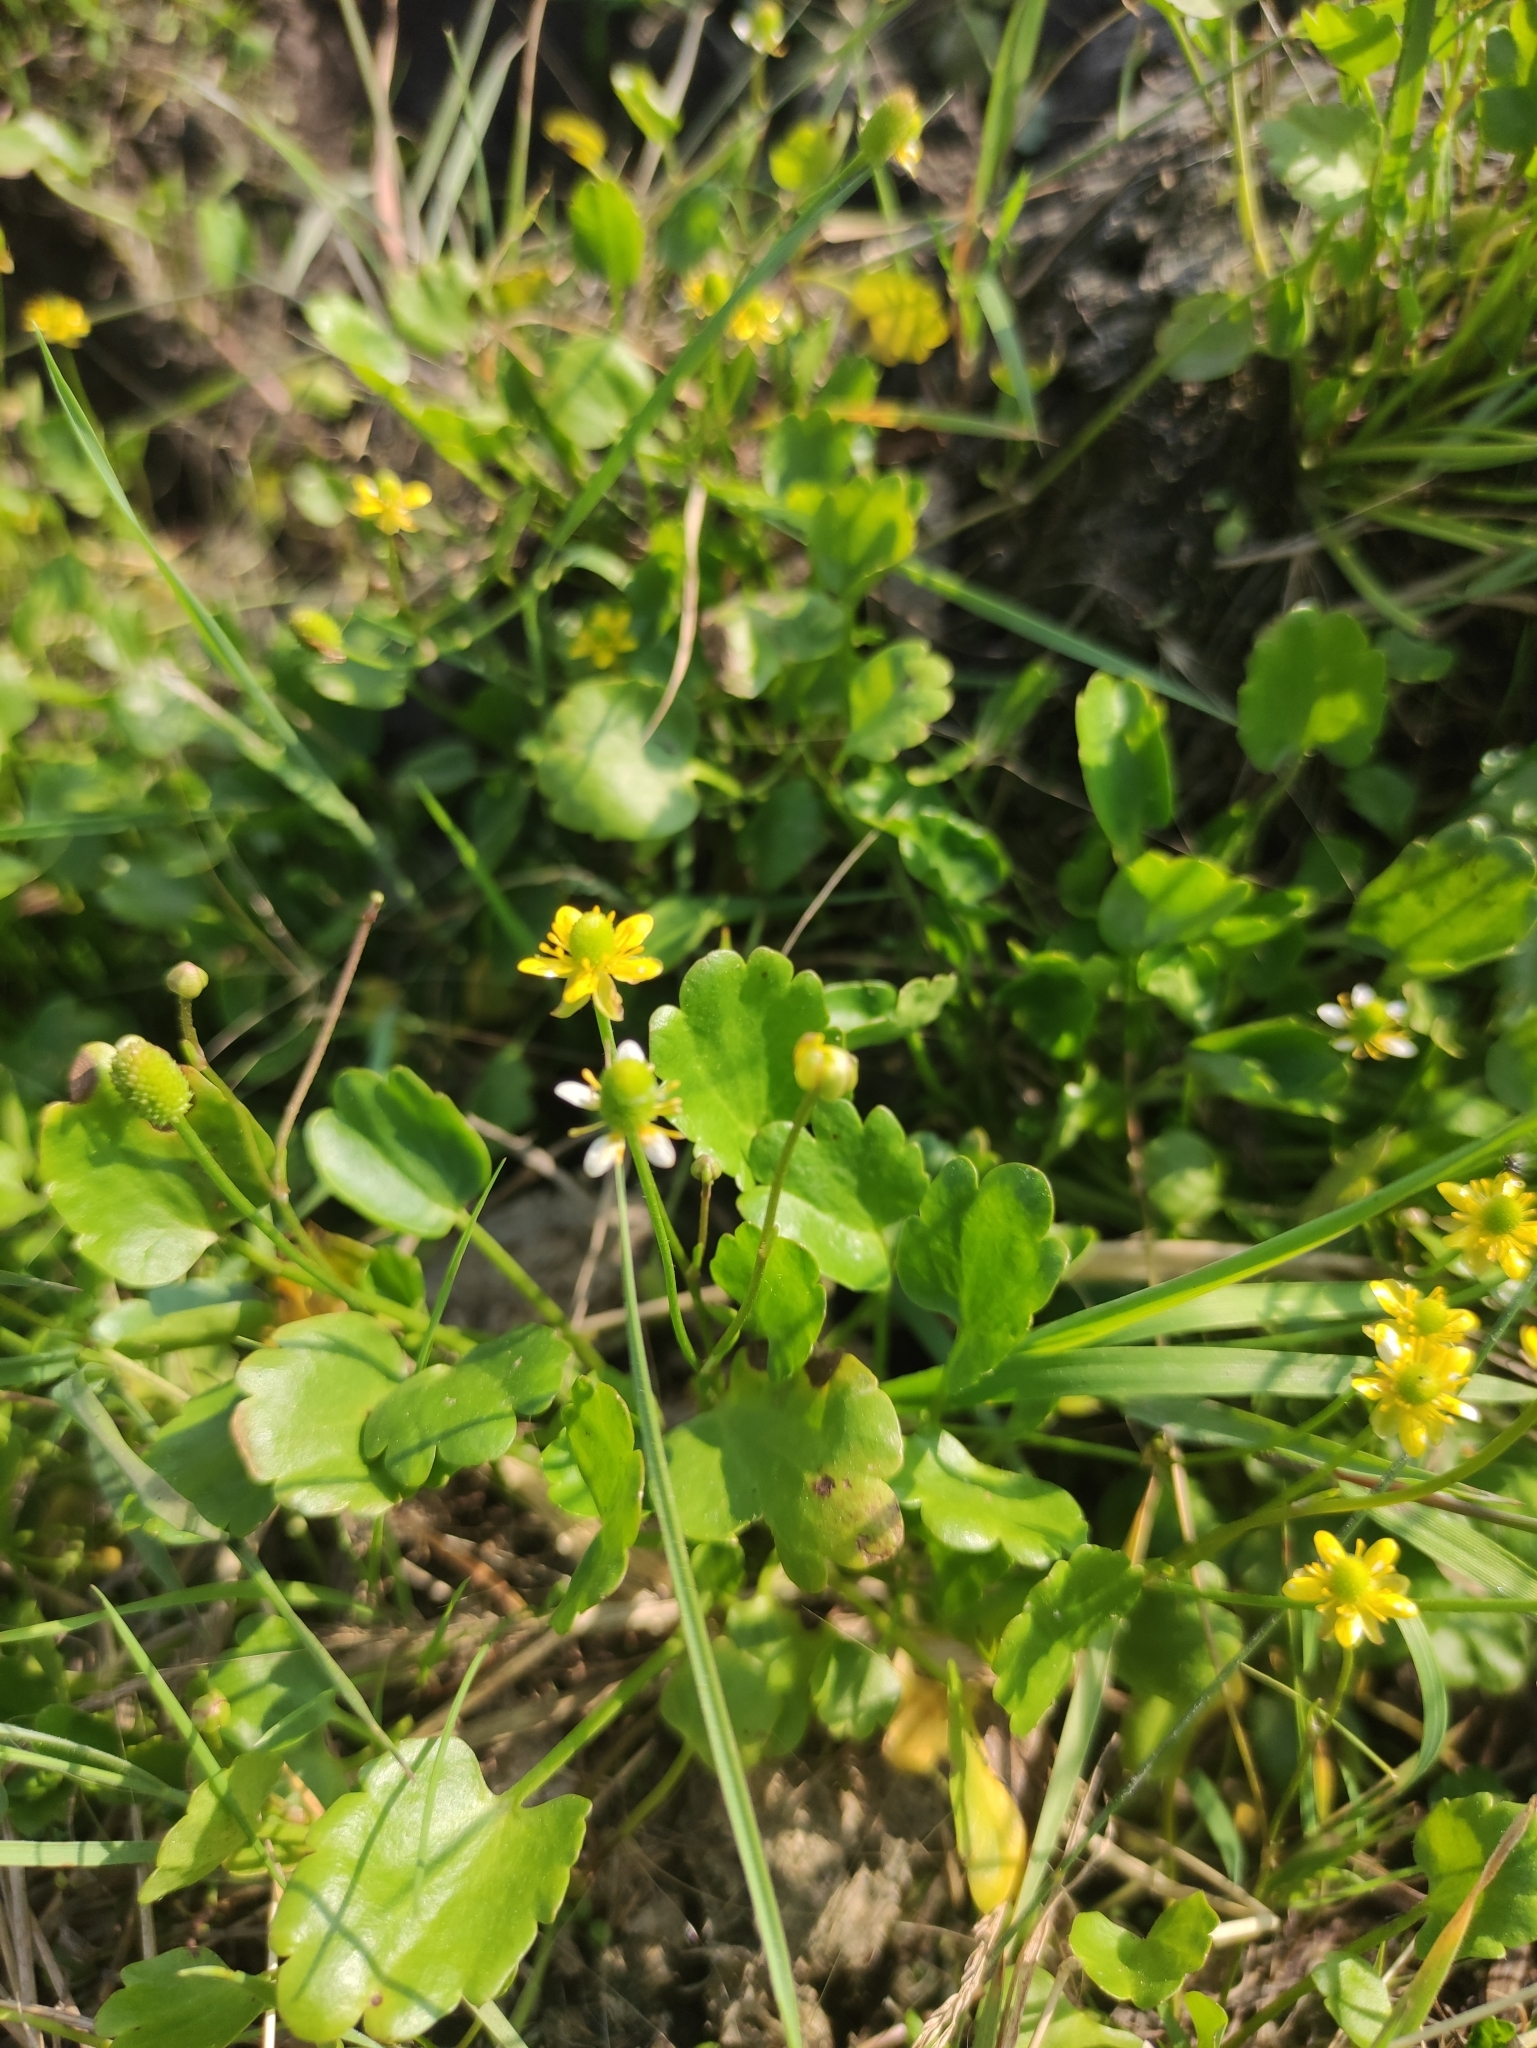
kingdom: Plantae
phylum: Tracheophyta
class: Magnoliopsida
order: Ranunculales
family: Ranunculaceae
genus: Halerpestes
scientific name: Halerpestes sarmentosus
